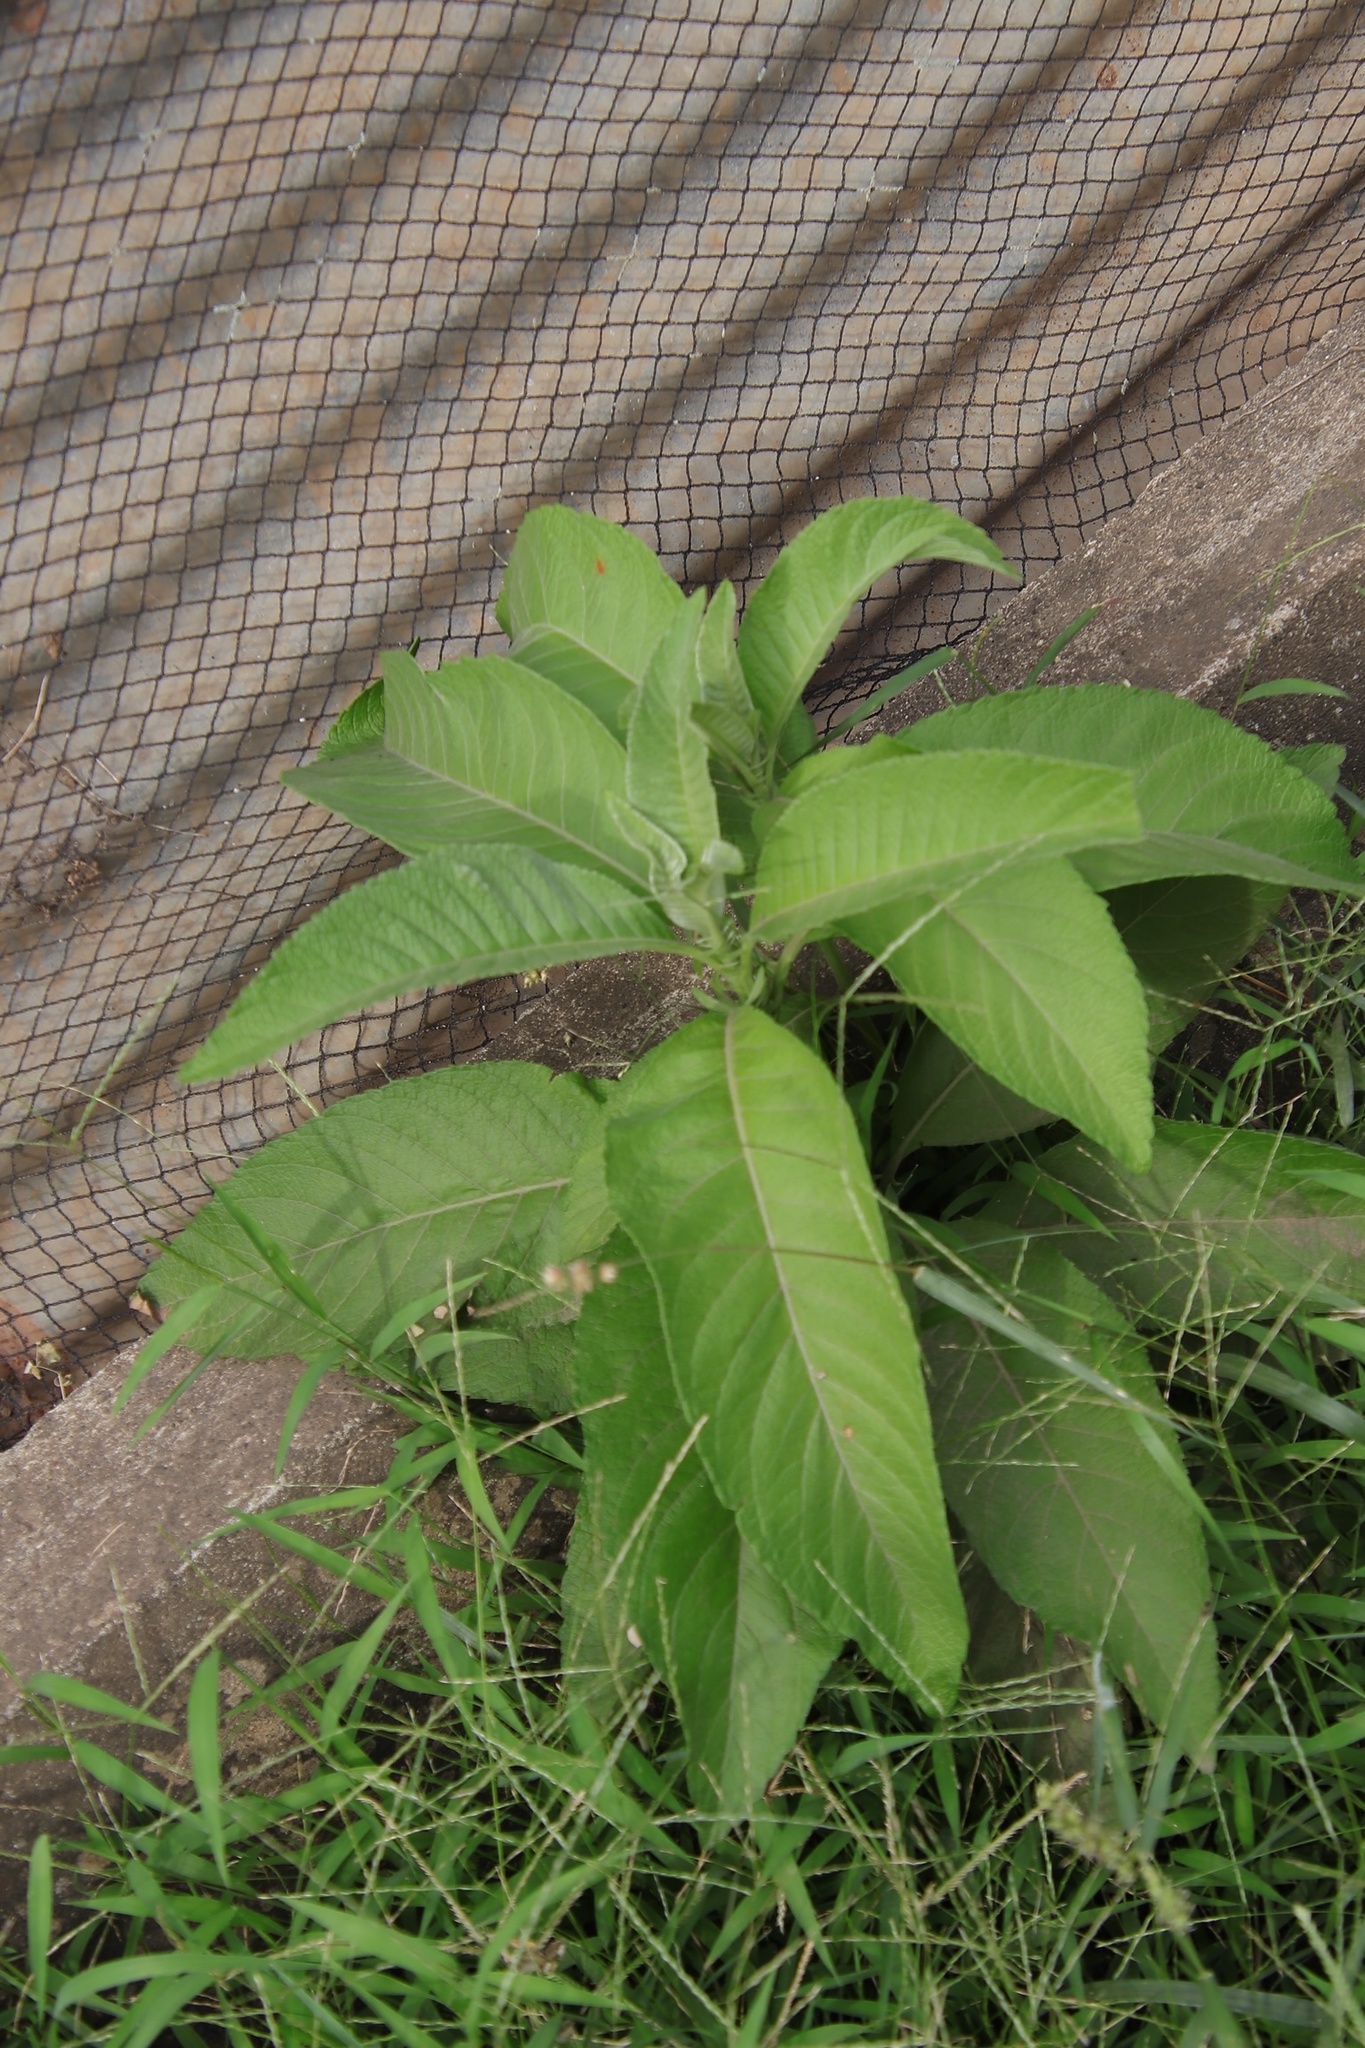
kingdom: Plantae
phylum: Tracheophyta
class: Magnoliopsida
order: Asterales
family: Asteraceae
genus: Blumea
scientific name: Blumea balsamifera
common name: Ngai camphor
